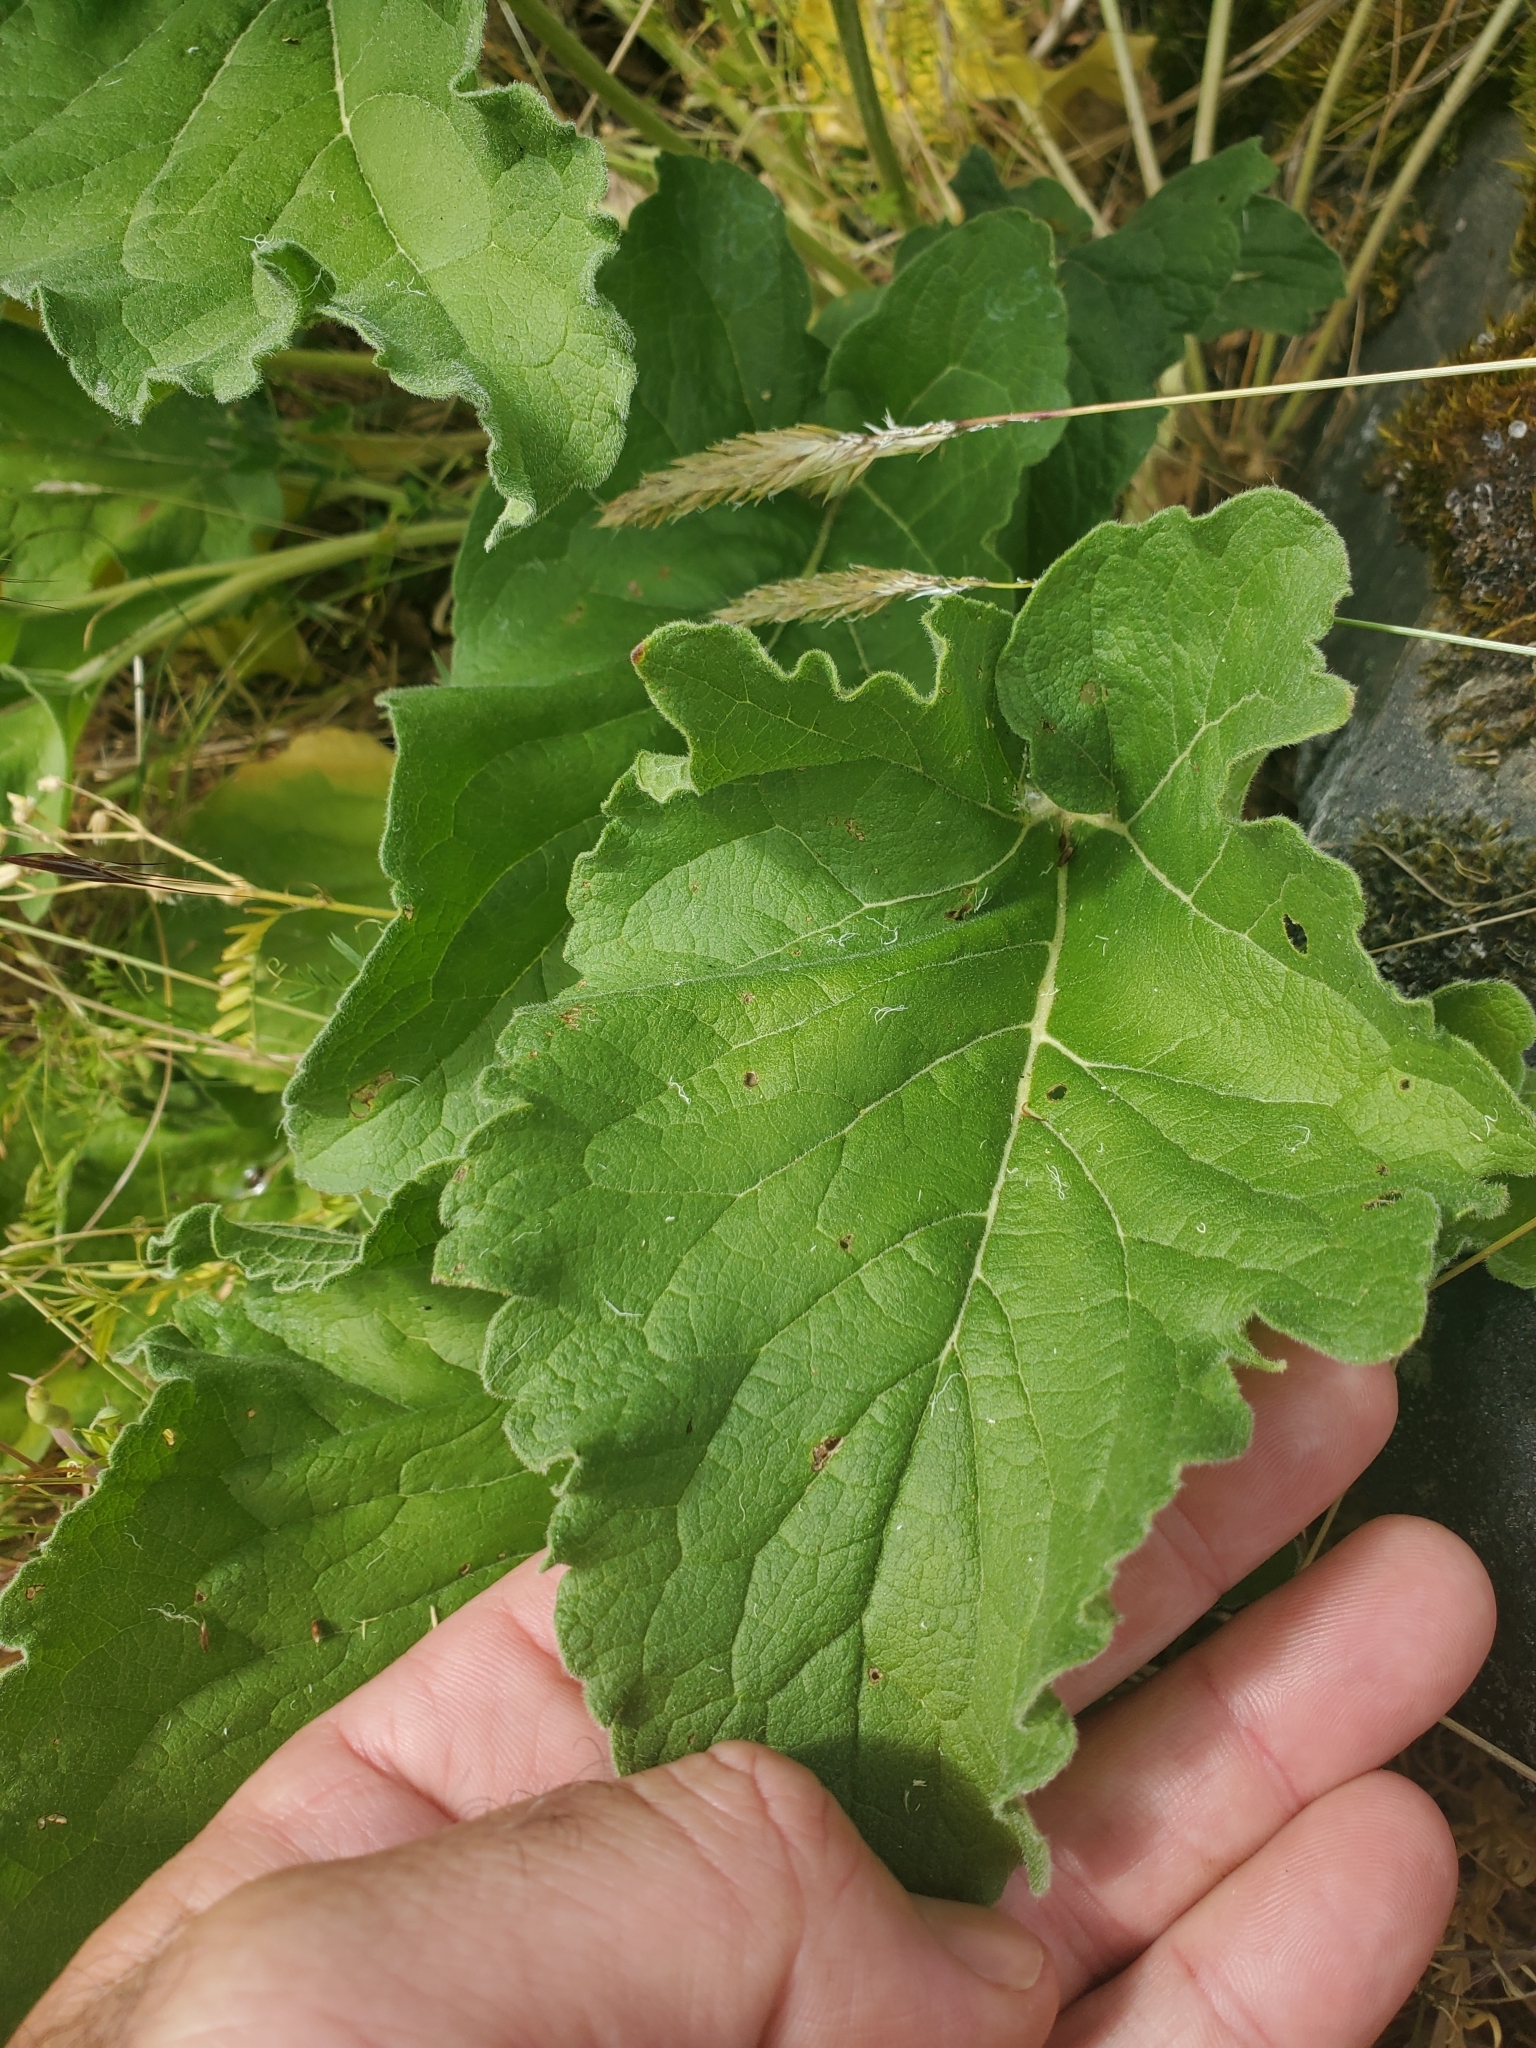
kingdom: Plantae
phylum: Tracheophyta
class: Magnoliopsida
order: Asterales
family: Asteraceae
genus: Balsamorhiza
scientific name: Balsamorhiza deltoidea
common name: Deltoid balsamroot
